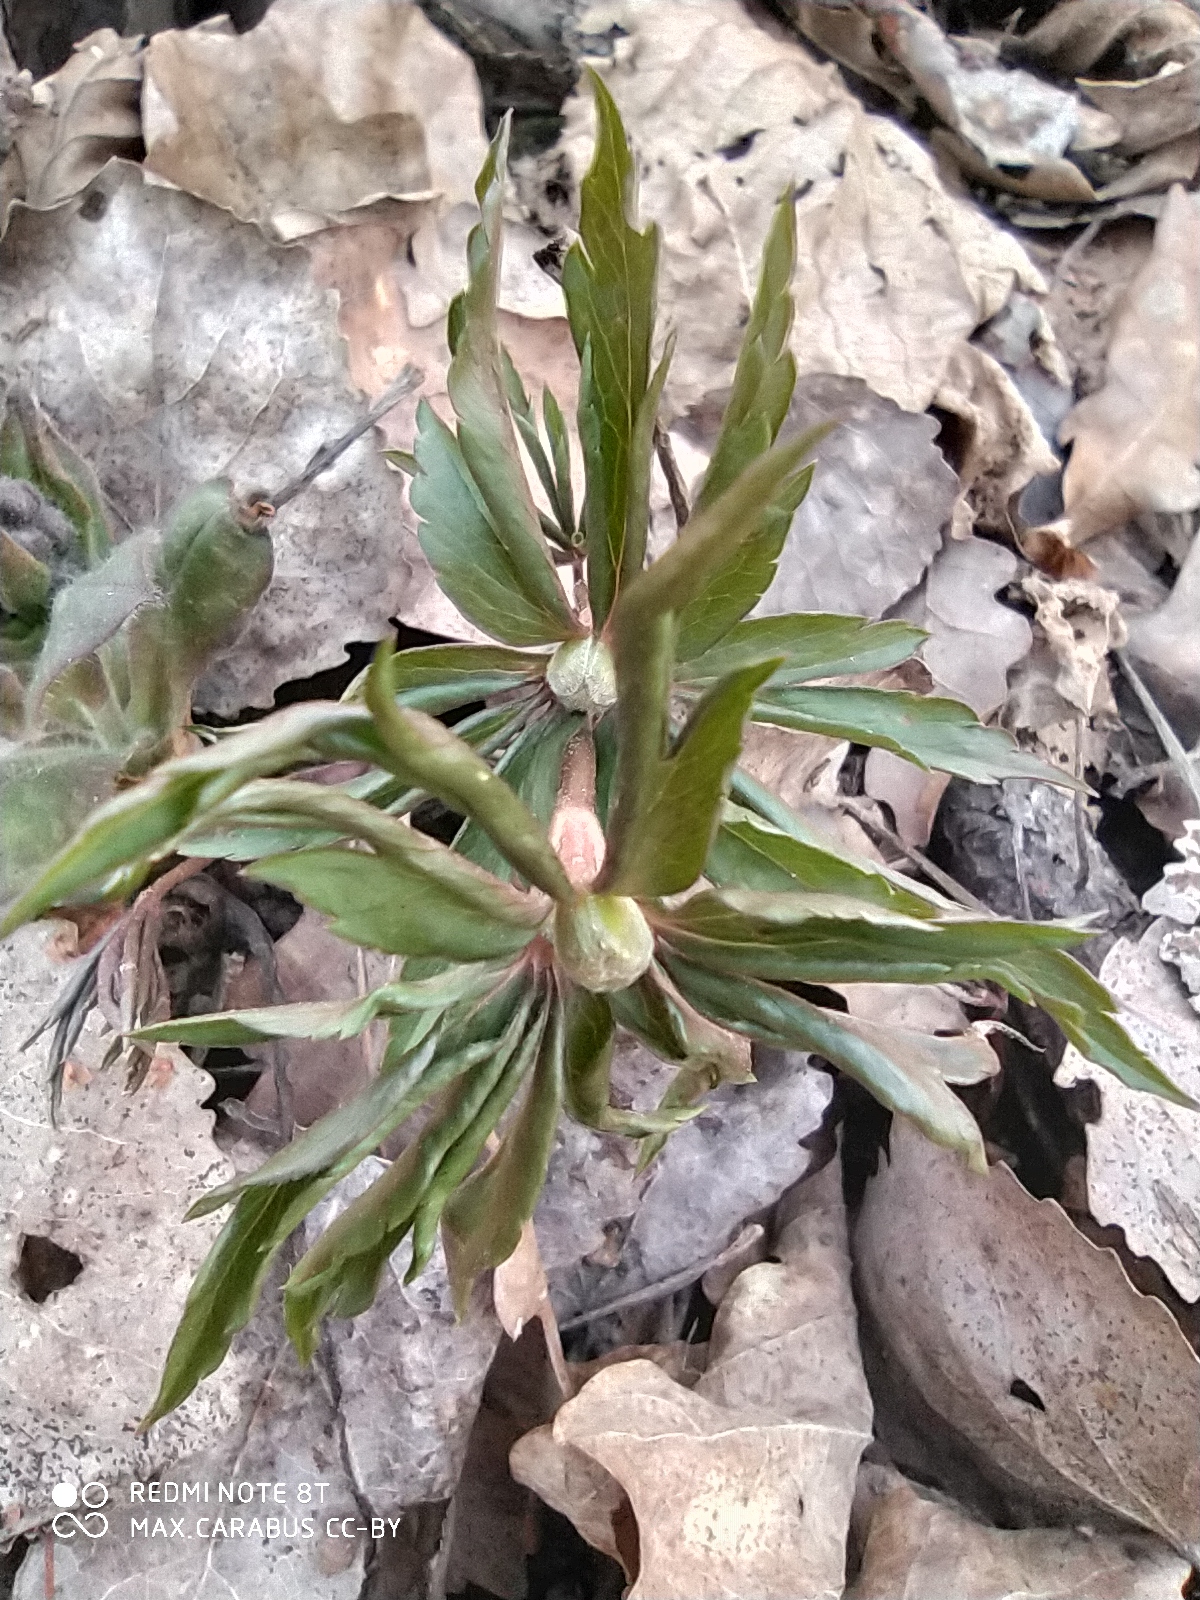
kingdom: Plantae
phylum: Tracheophyta
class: Magnoliopsida
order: Ranunculales
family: Ranunculaceae
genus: Anemone
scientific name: Anemone ranunculoides
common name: Yellow anemone
